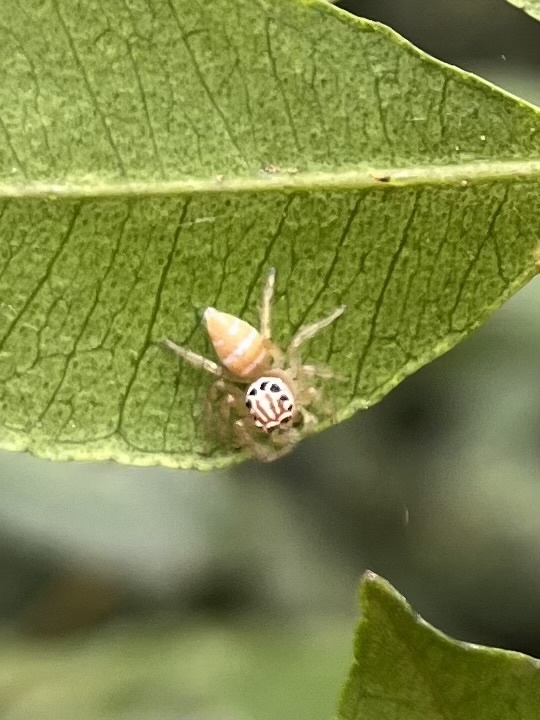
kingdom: Animalia
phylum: Arthropoda
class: Arachnida
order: Araneae
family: Salticidae
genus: Brancus
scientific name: Brancus mustelus
